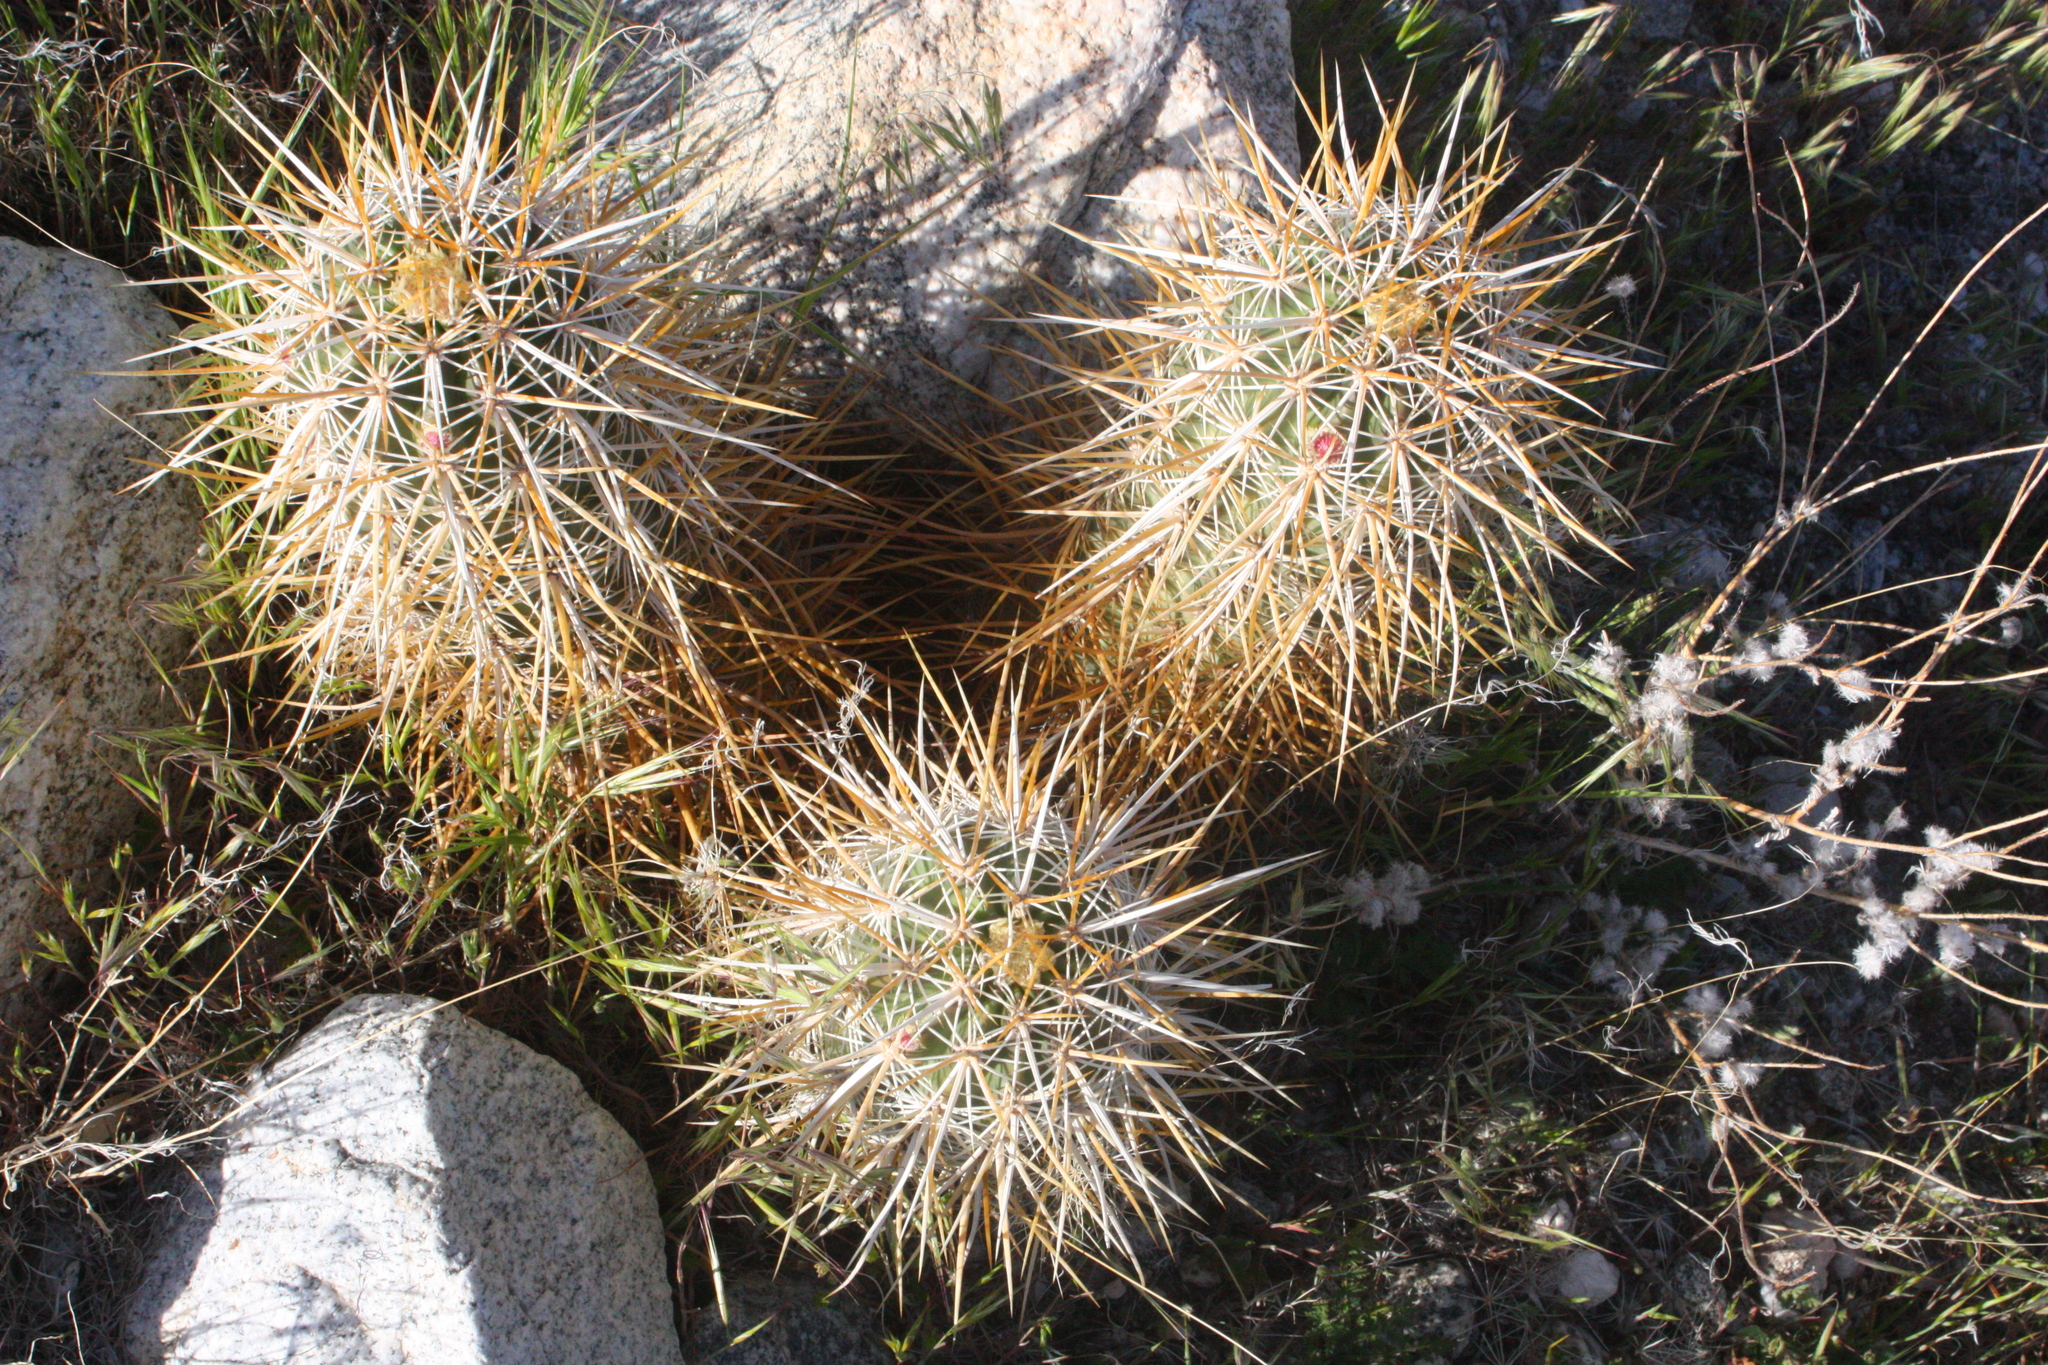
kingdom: Plantae
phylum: Tracheophyta
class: Magnoliopsida
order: Caryophyllales
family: Cactaceae
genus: Echinocereus
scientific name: Echinocereus engelmannii
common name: Engelmann's hedgehog cactus
